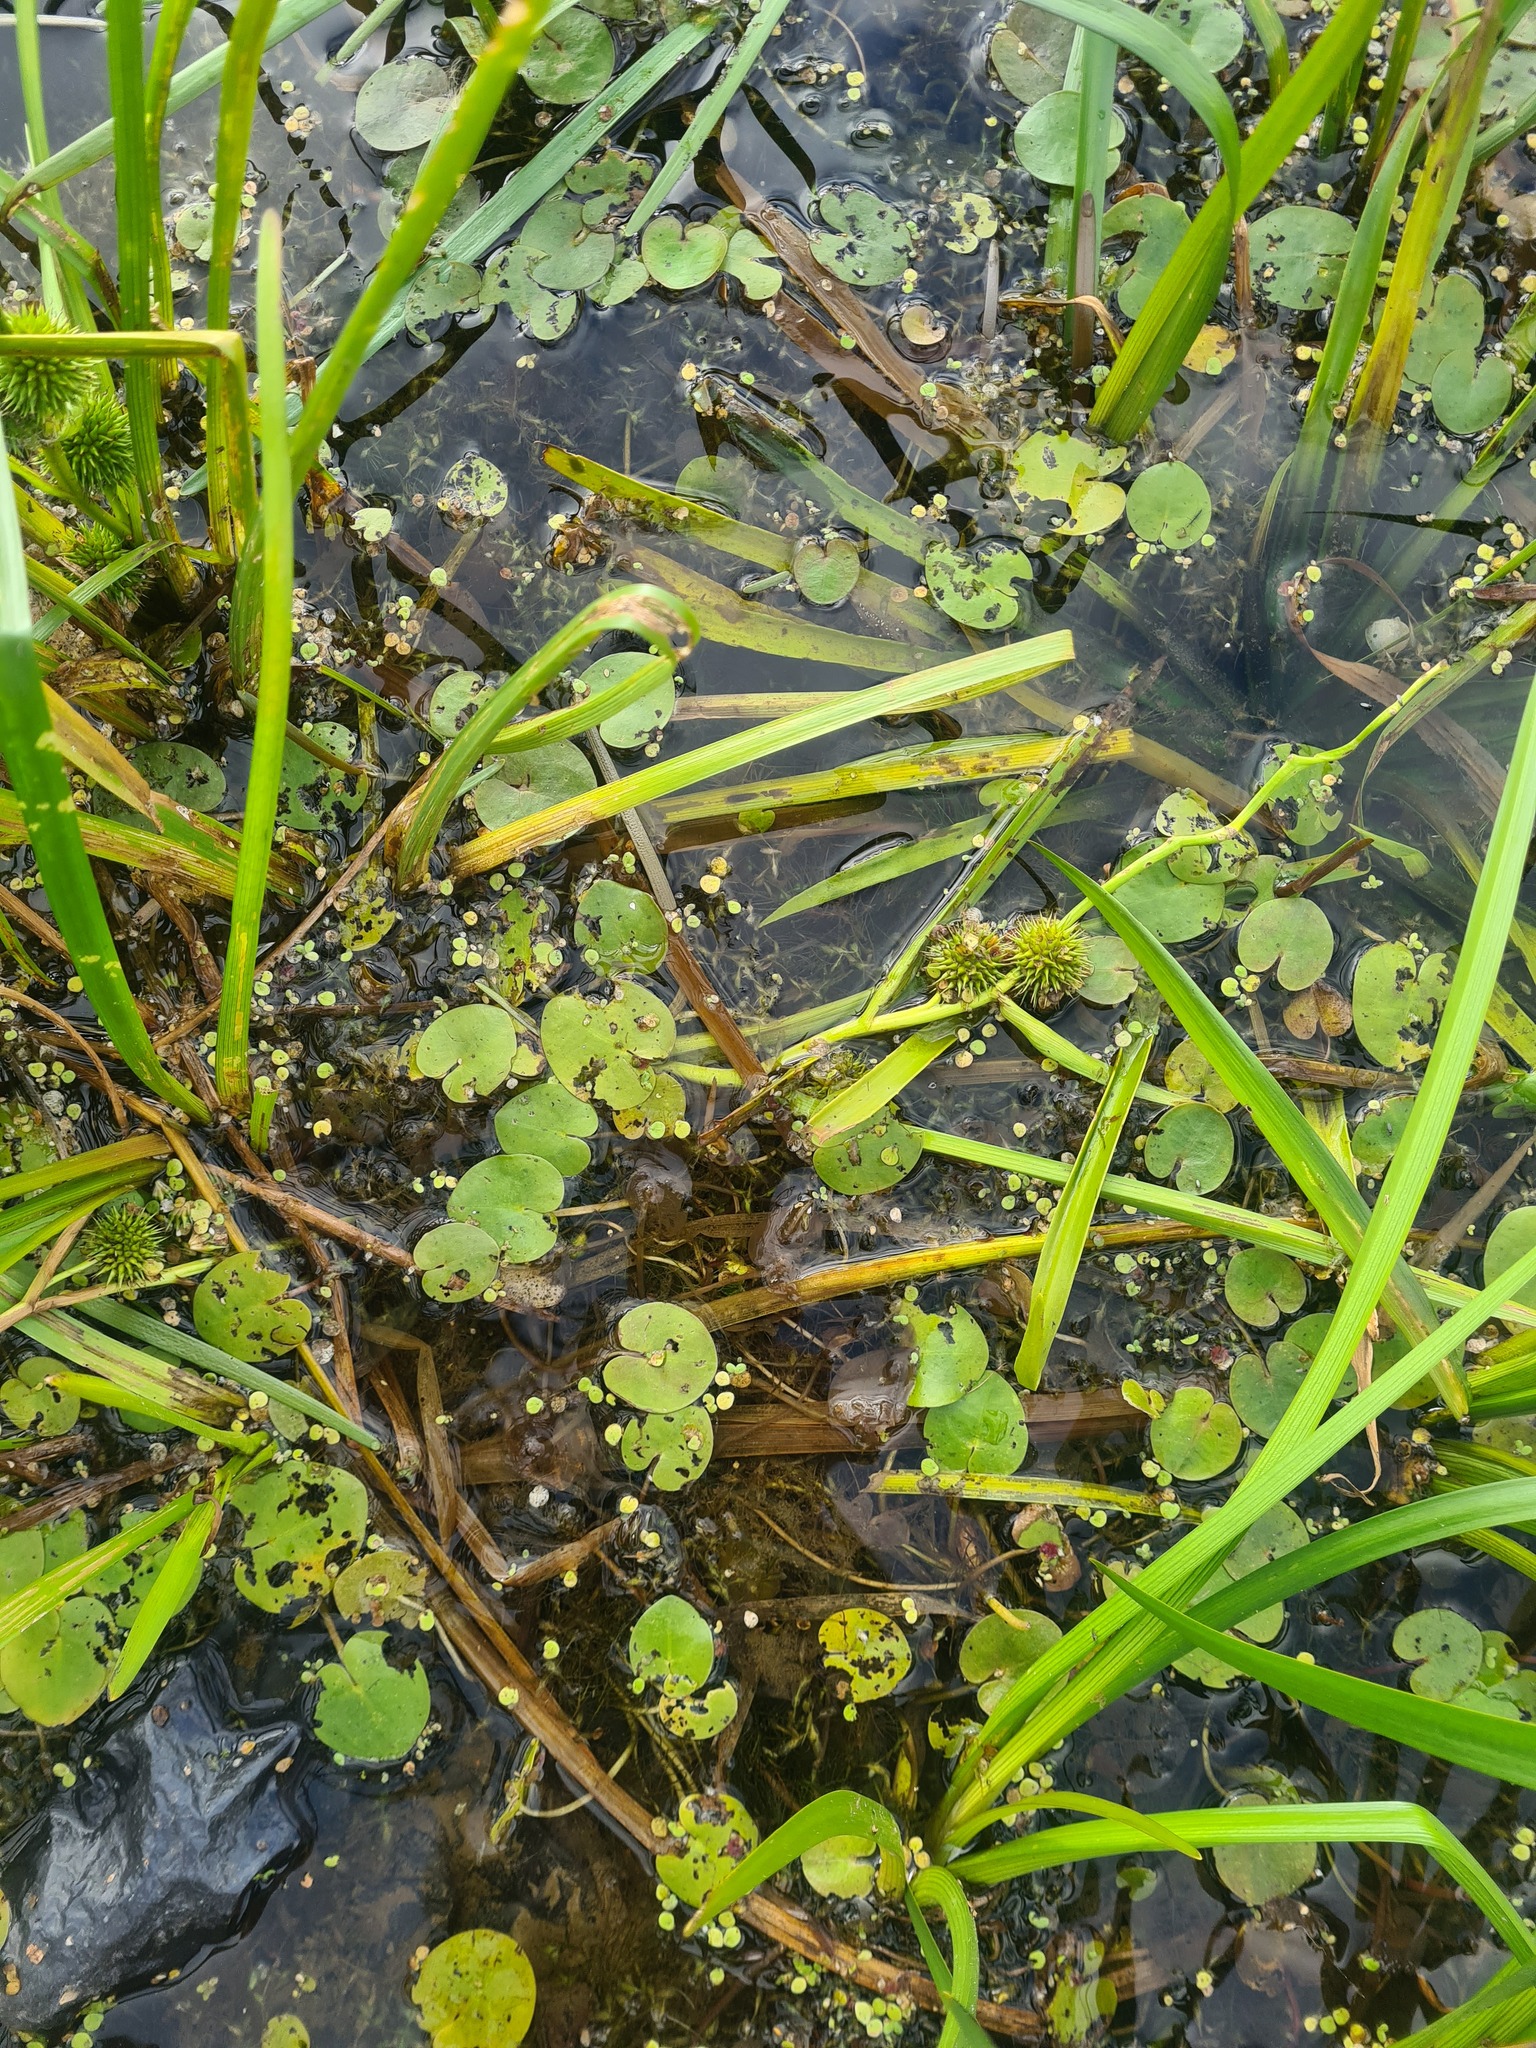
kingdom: Plantae
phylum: Tracheophyta
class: Liliopsida
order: Alismatales
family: Hydrocharitaceae
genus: Hydrocharis
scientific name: Hydrocharis morsus-ranae
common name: Frogbit
